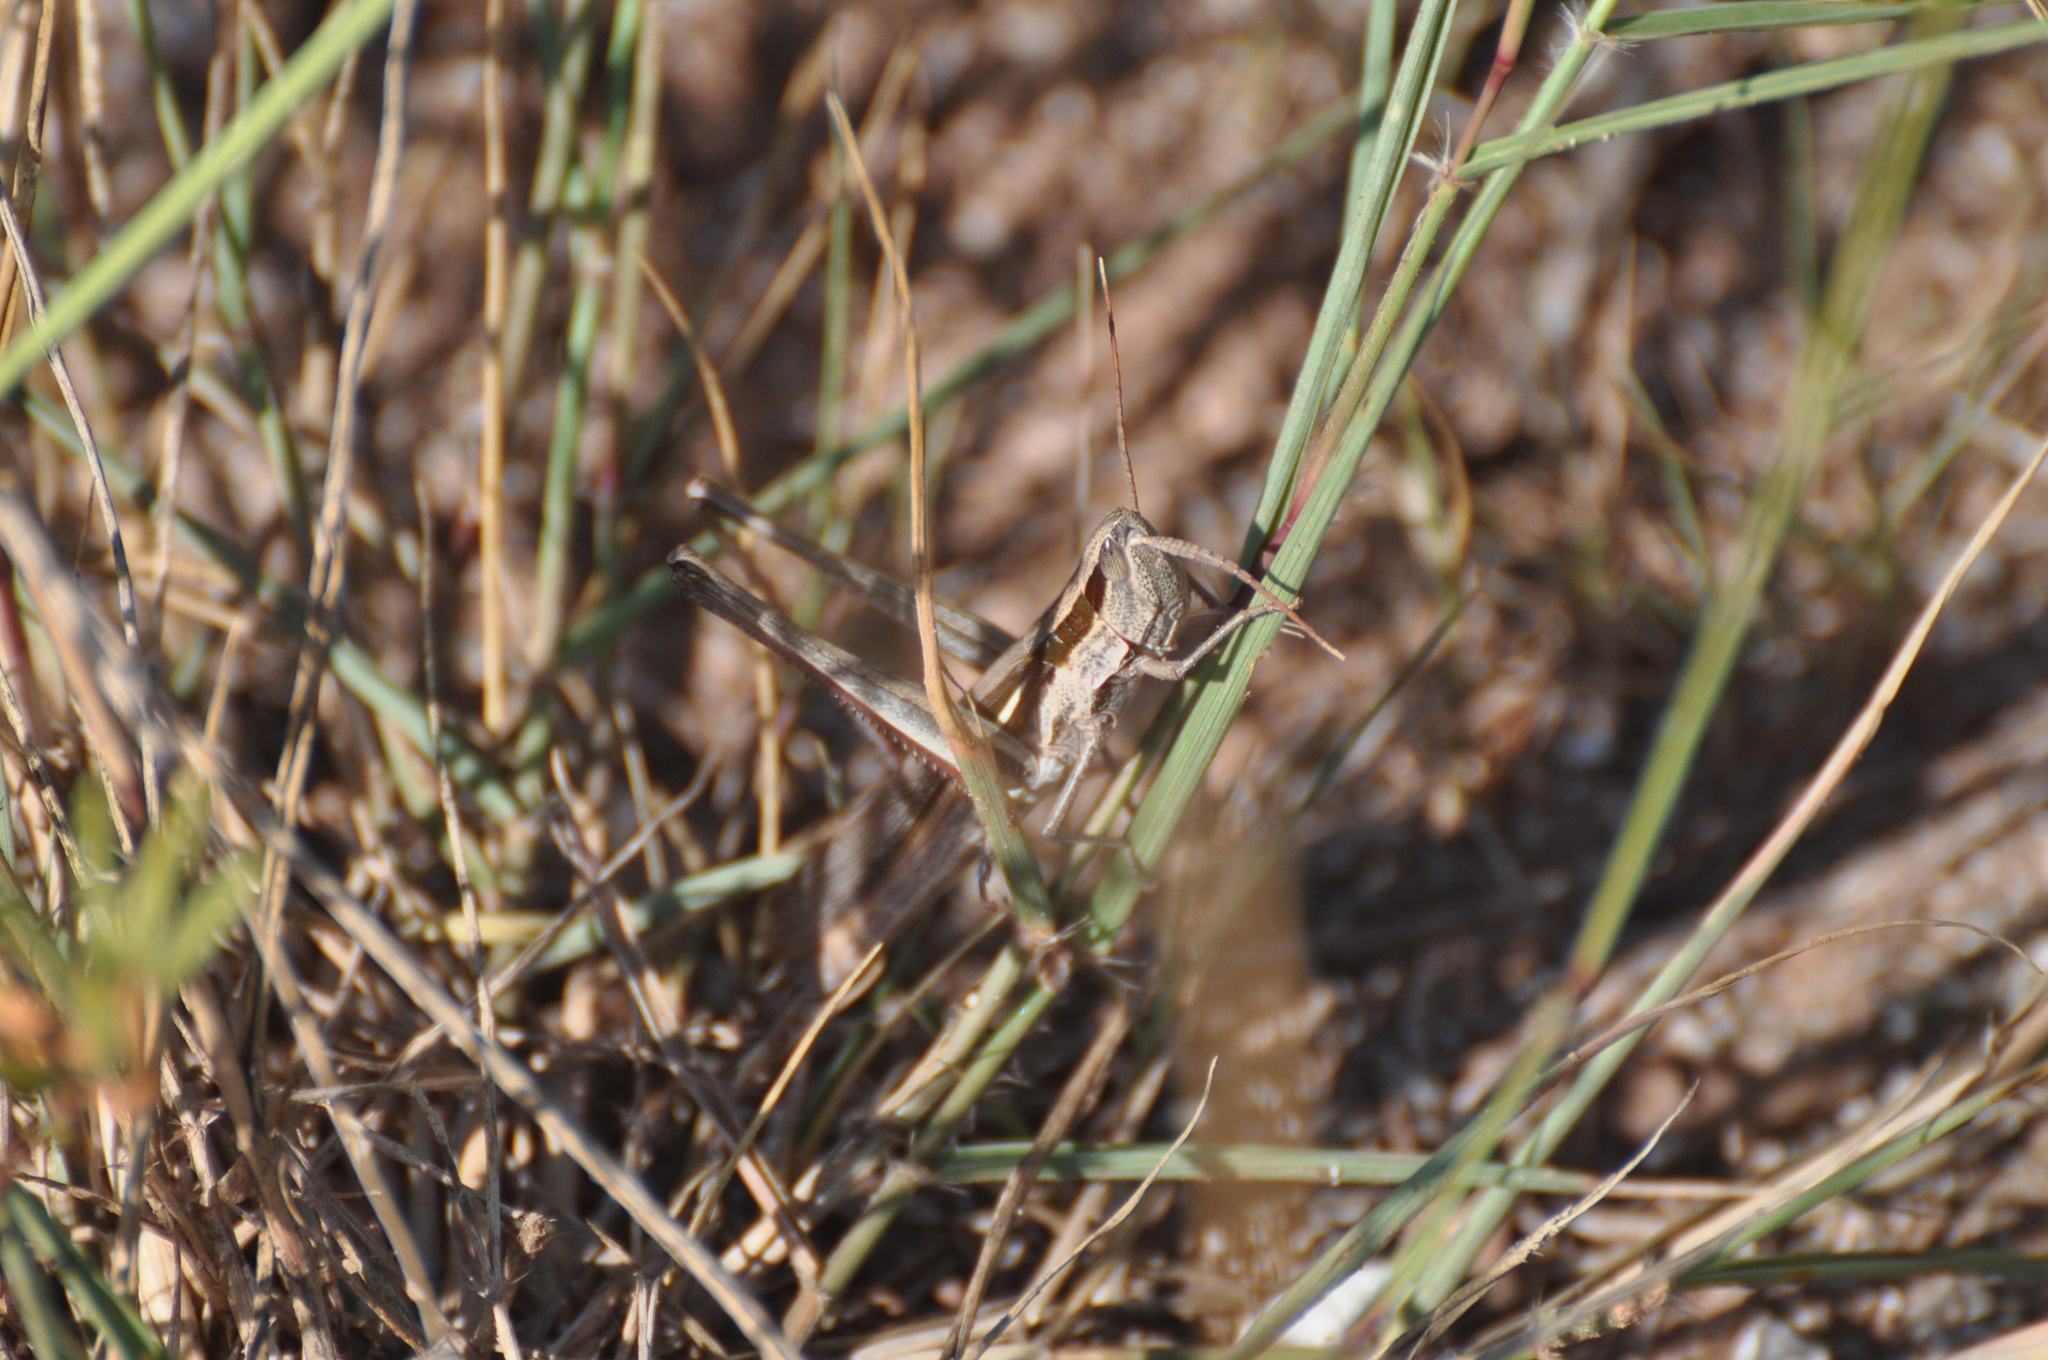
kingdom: Animalia
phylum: Arthropoda
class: Insecta
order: Orthoptera
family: Acrididae
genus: Mermiria
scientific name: Mermiria bivittata
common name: Two-striped mermiria grasshopper
